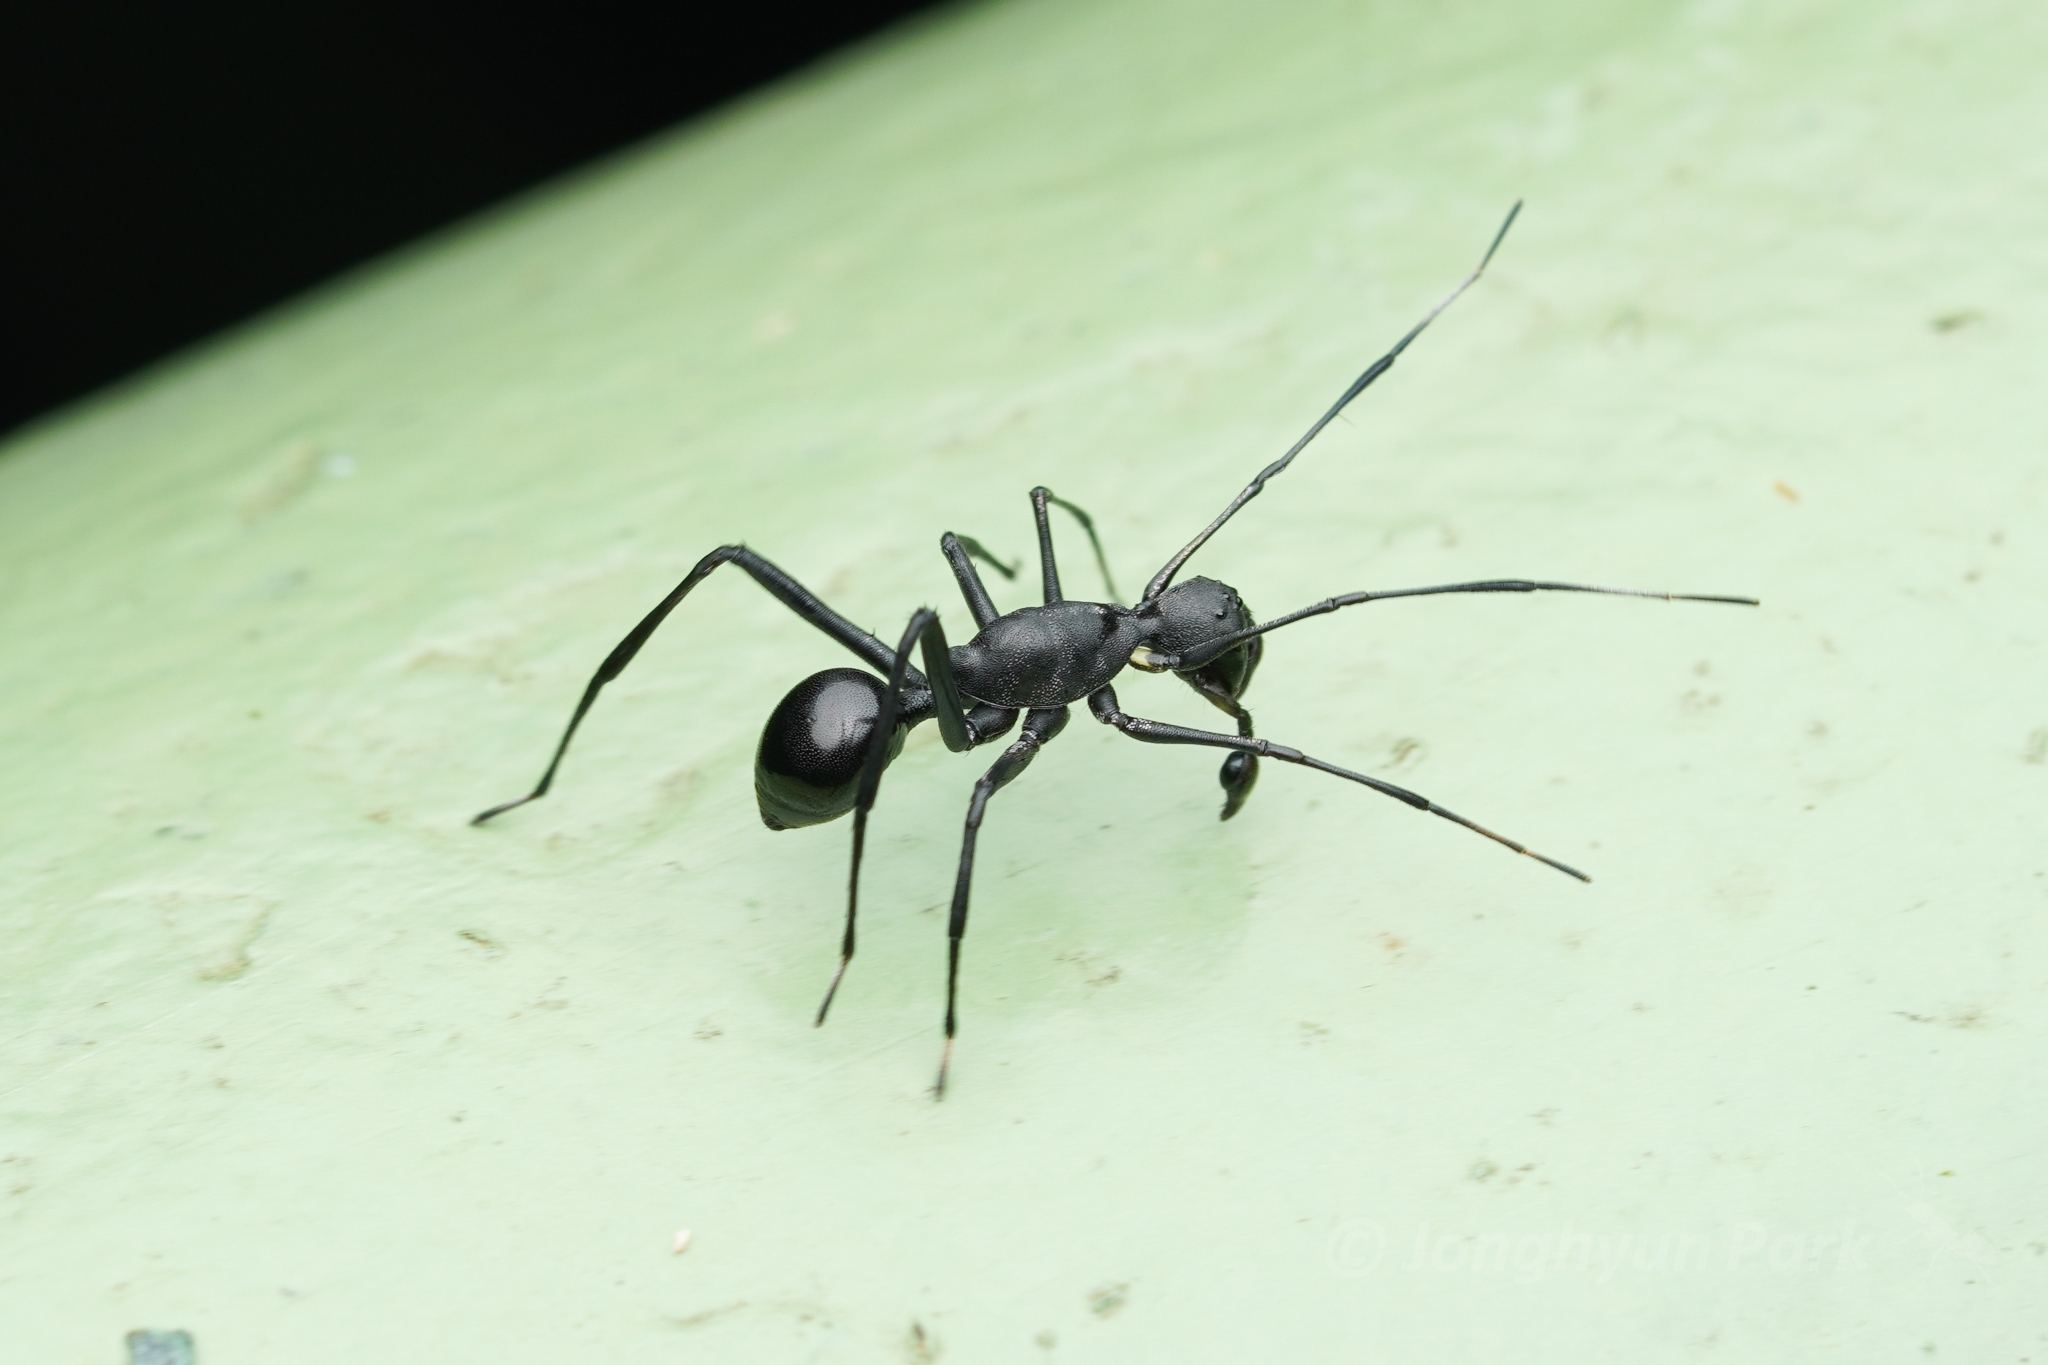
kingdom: Animalia
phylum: Arthropoda
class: Arachnida
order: Araneae
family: Corinnidae
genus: Sphecotypus
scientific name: Sphecotypus borneensis
